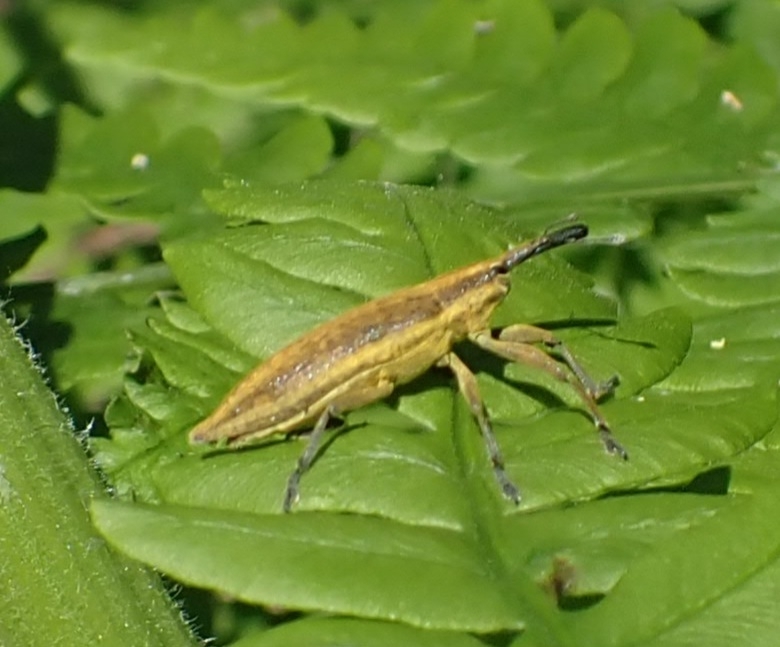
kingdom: Animalia
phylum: Arthropoda
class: Insecta
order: Coleoptera
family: Curculionidae
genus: Lixus
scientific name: Lixus iridis
